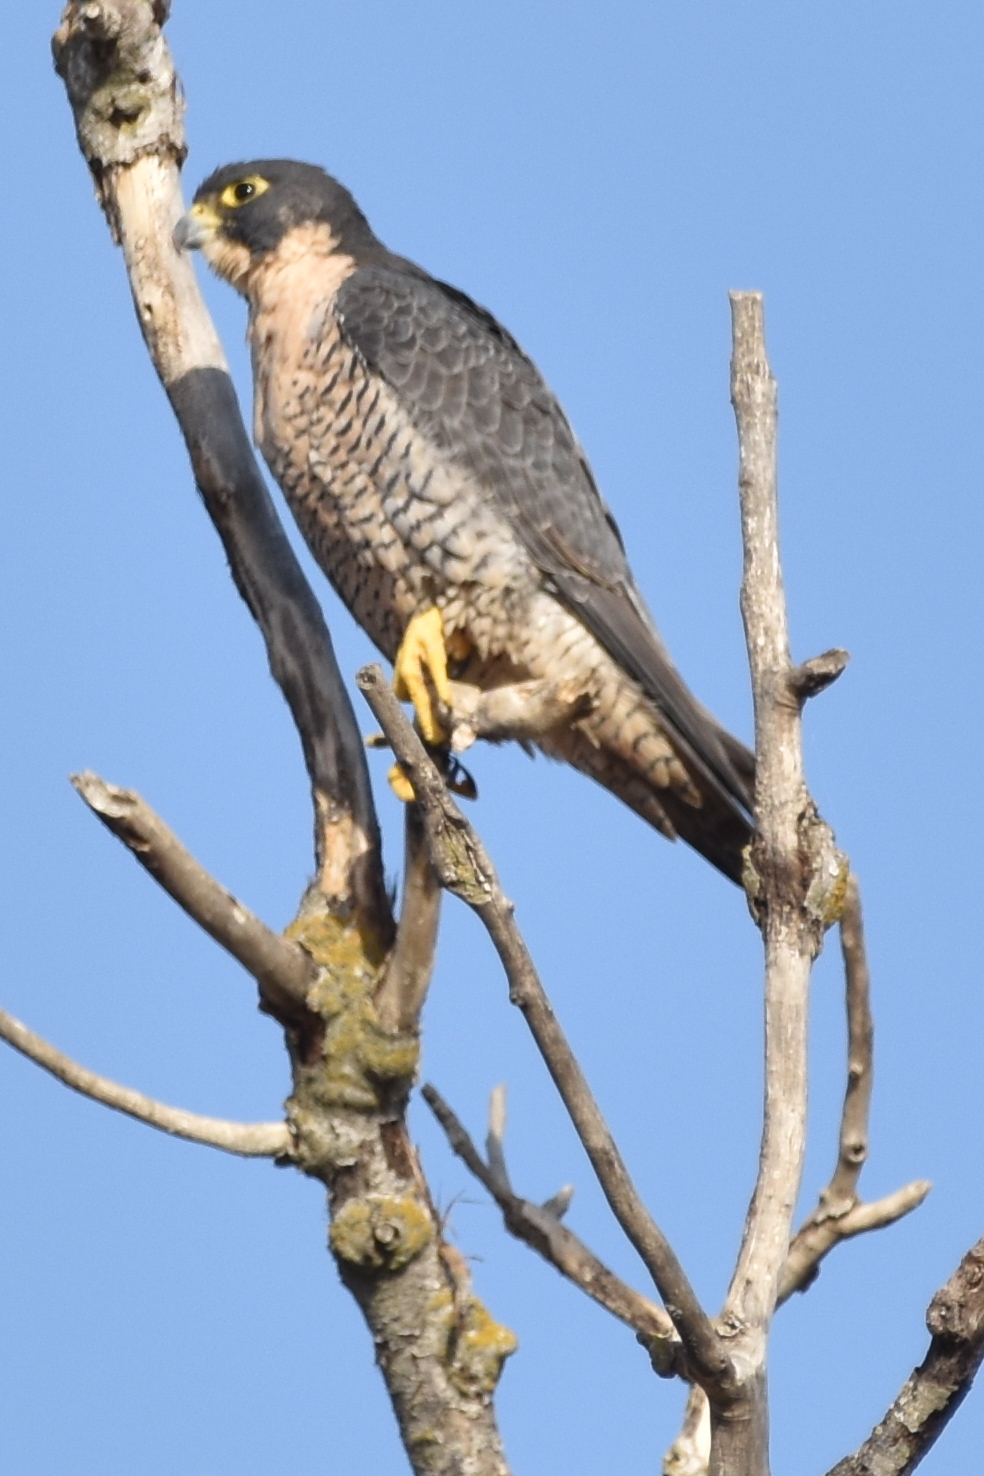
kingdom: Animalia
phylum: Chordata
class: Aves
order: Falconiformes
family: Falconidae
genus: Falco
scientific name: Falco peregrinus
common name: Peregrine falcon
